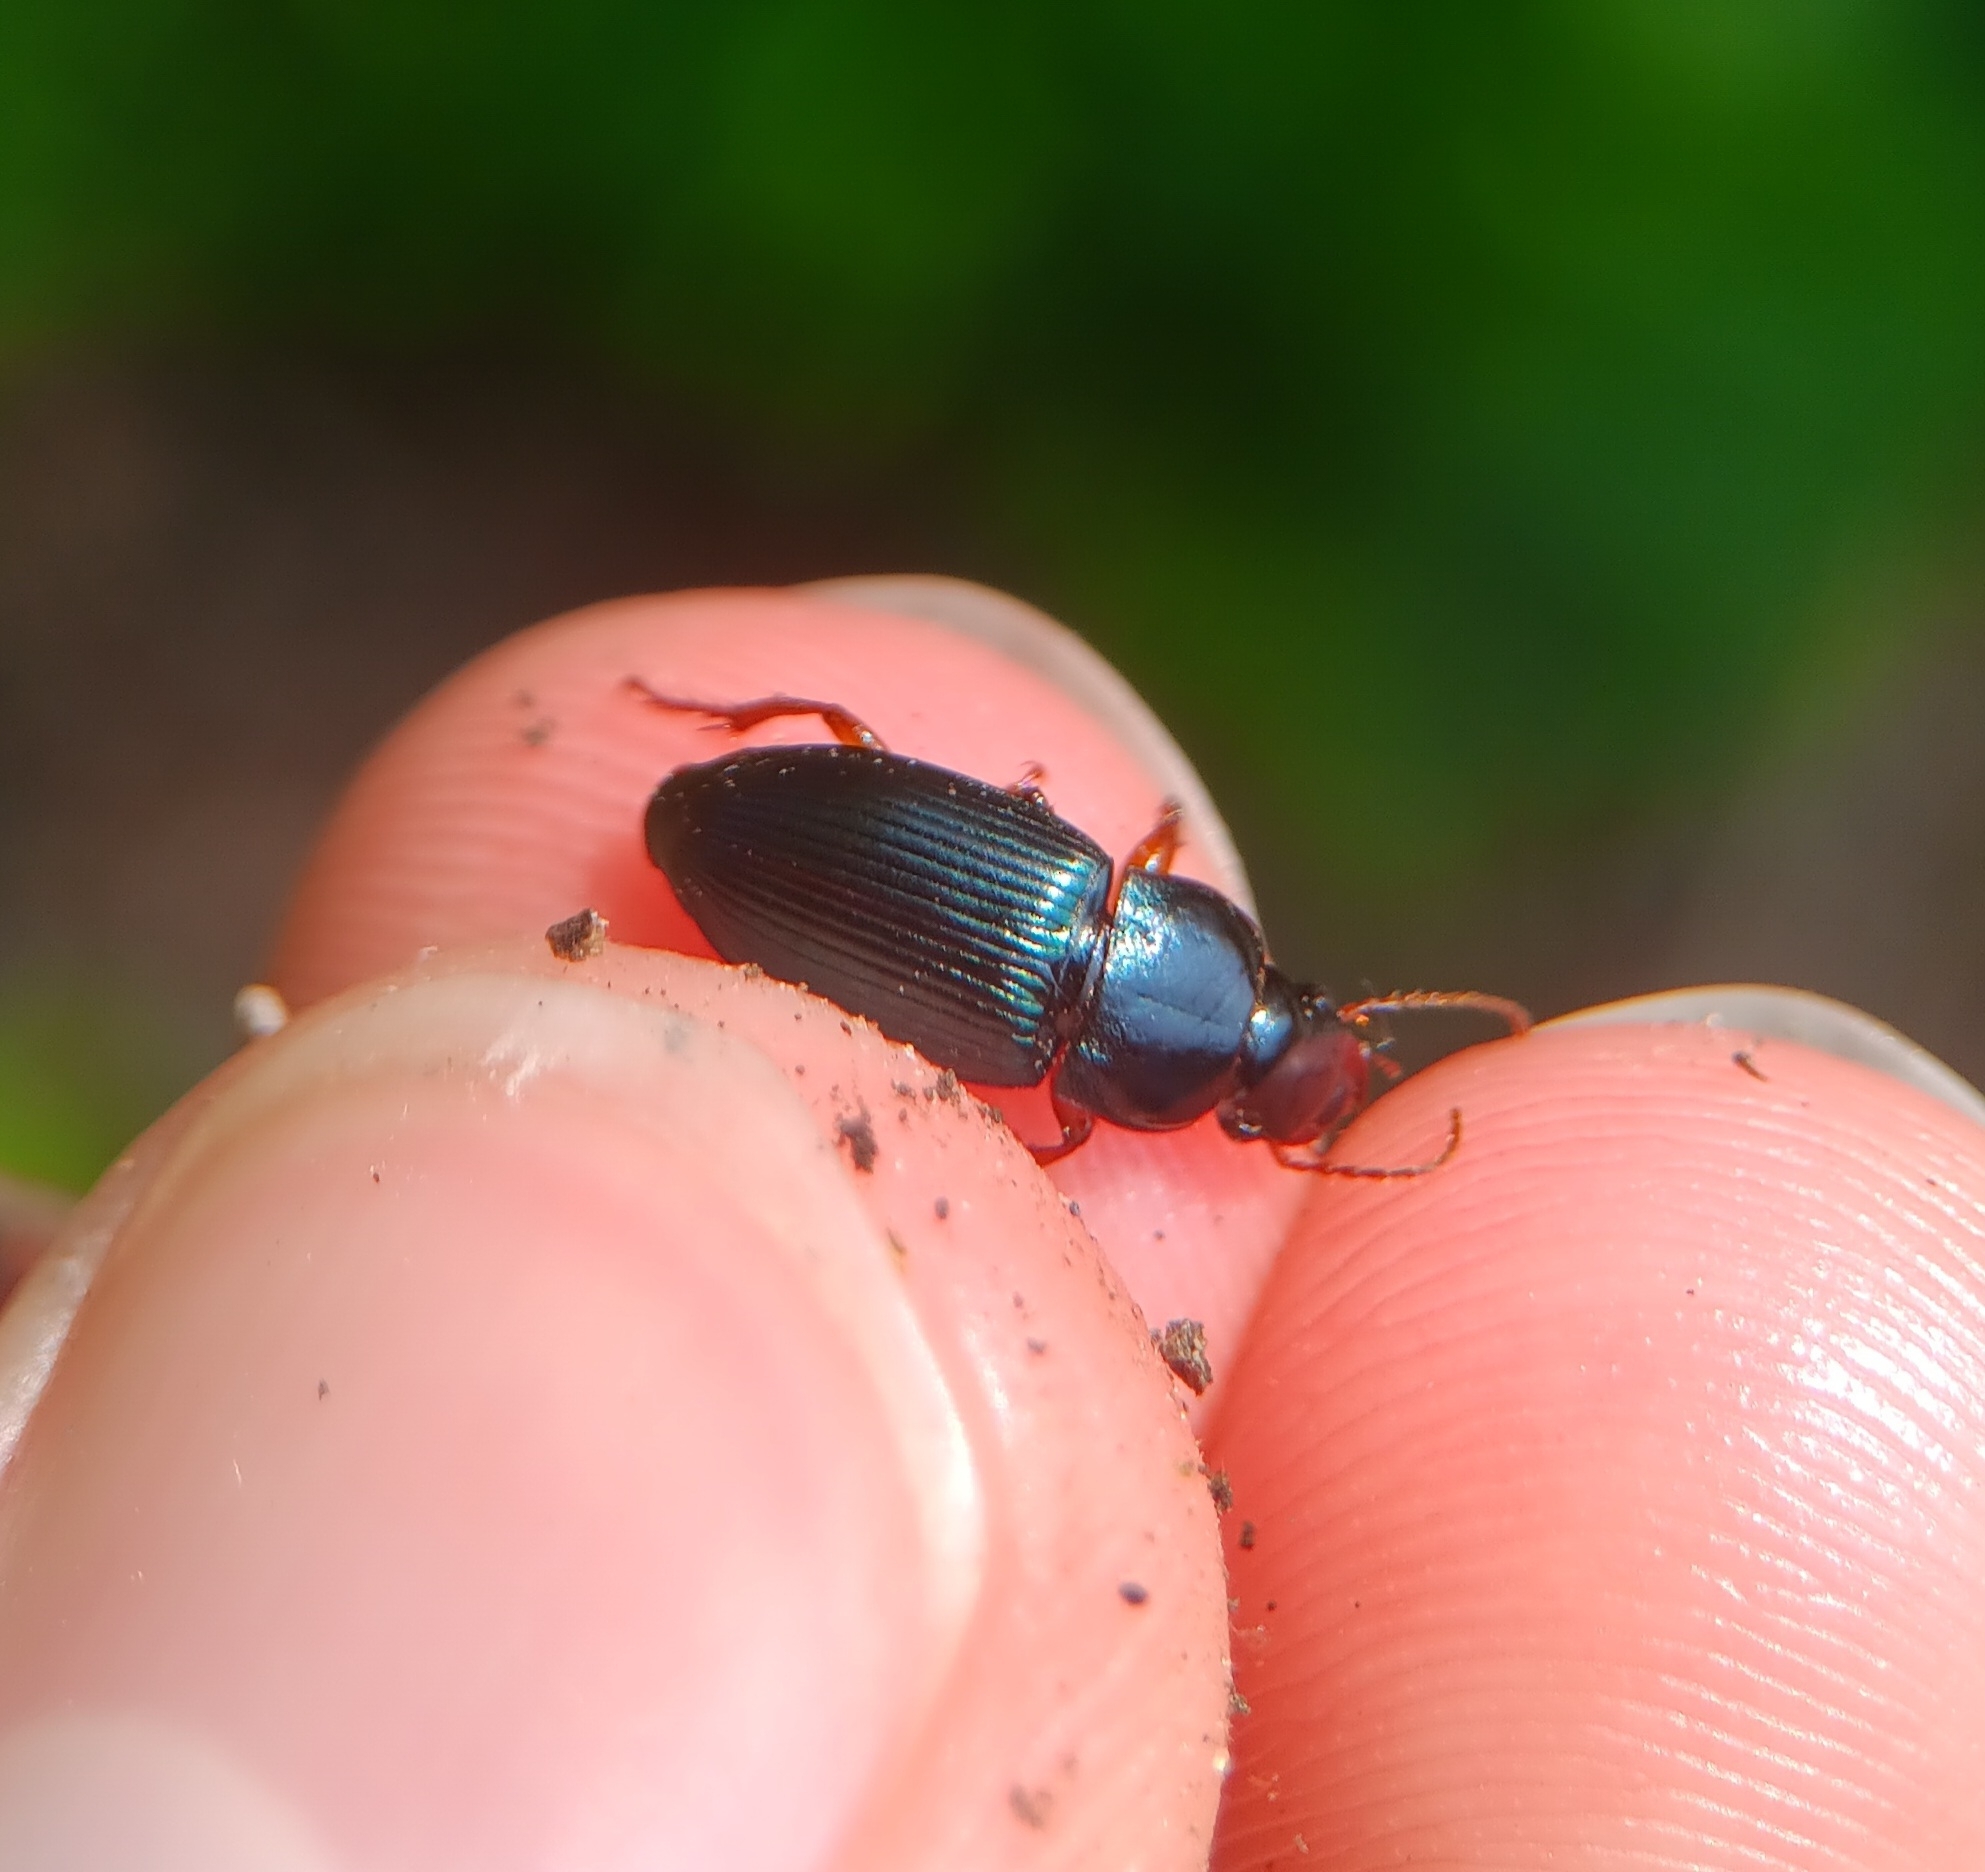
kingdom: Animalia
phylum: Arthropoda
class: Insecta
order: Coleoptera
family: Carabidae
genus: Harpalus
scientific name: Harpalus rubripes
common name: Red-legged harp ground beetle
